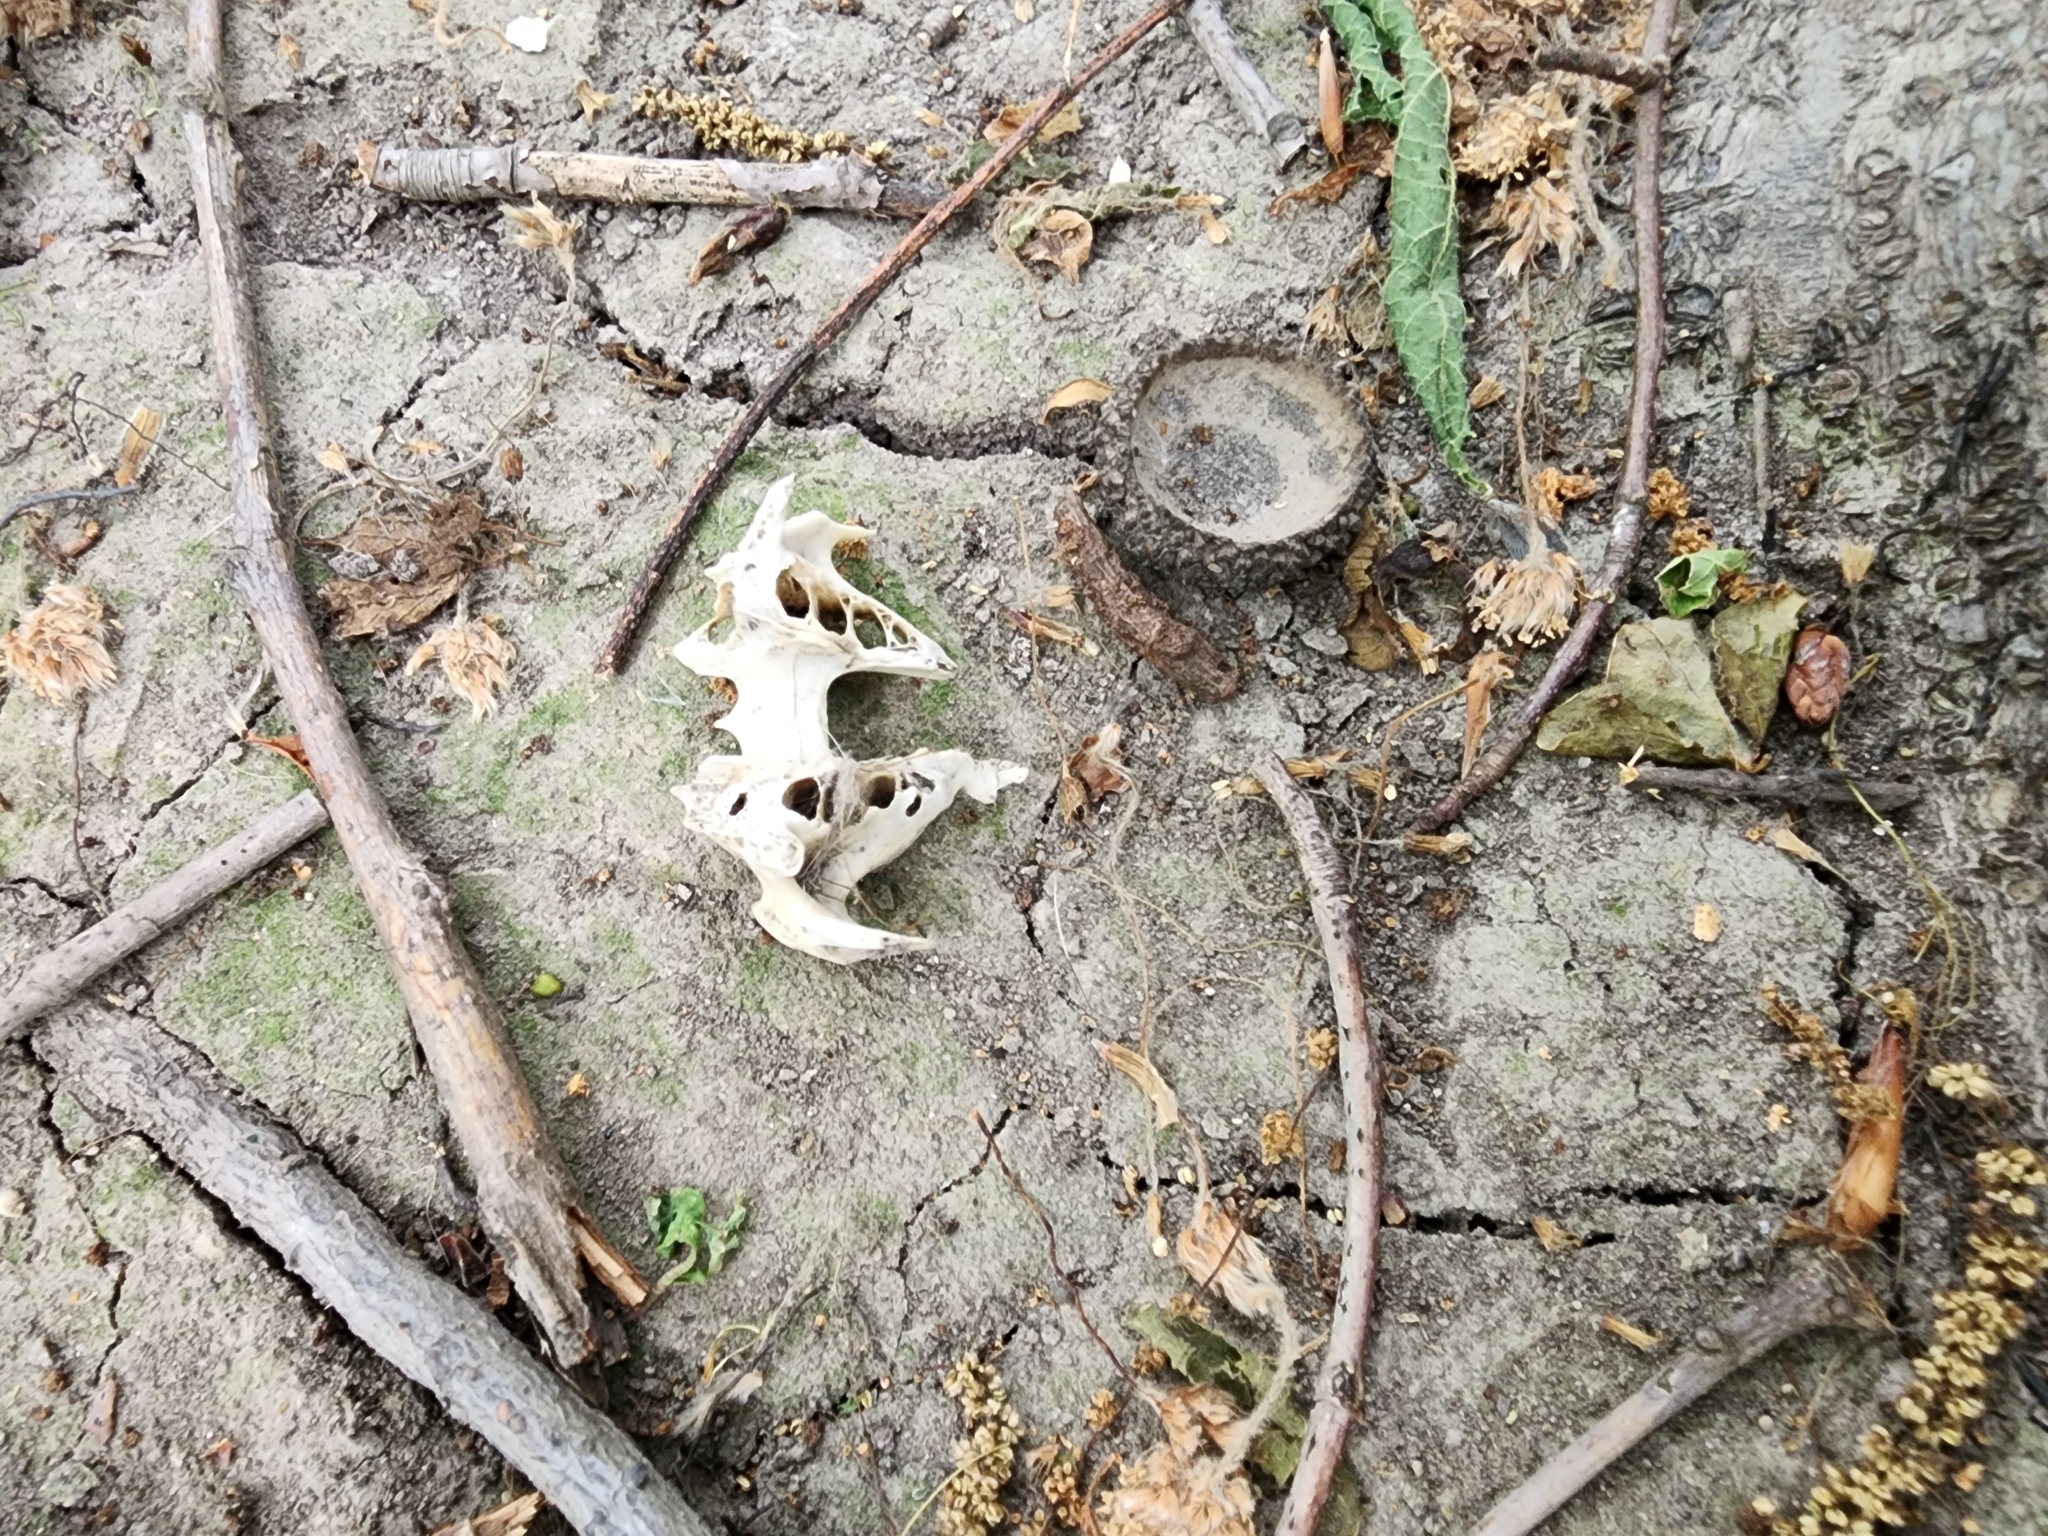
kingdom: Animalia
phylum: Chordata
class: Mammalia
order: Lagomorpha
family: Leporidae
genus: Sylvilagus
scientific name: Sylvilagus floridanus
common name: Eastern cottontail
